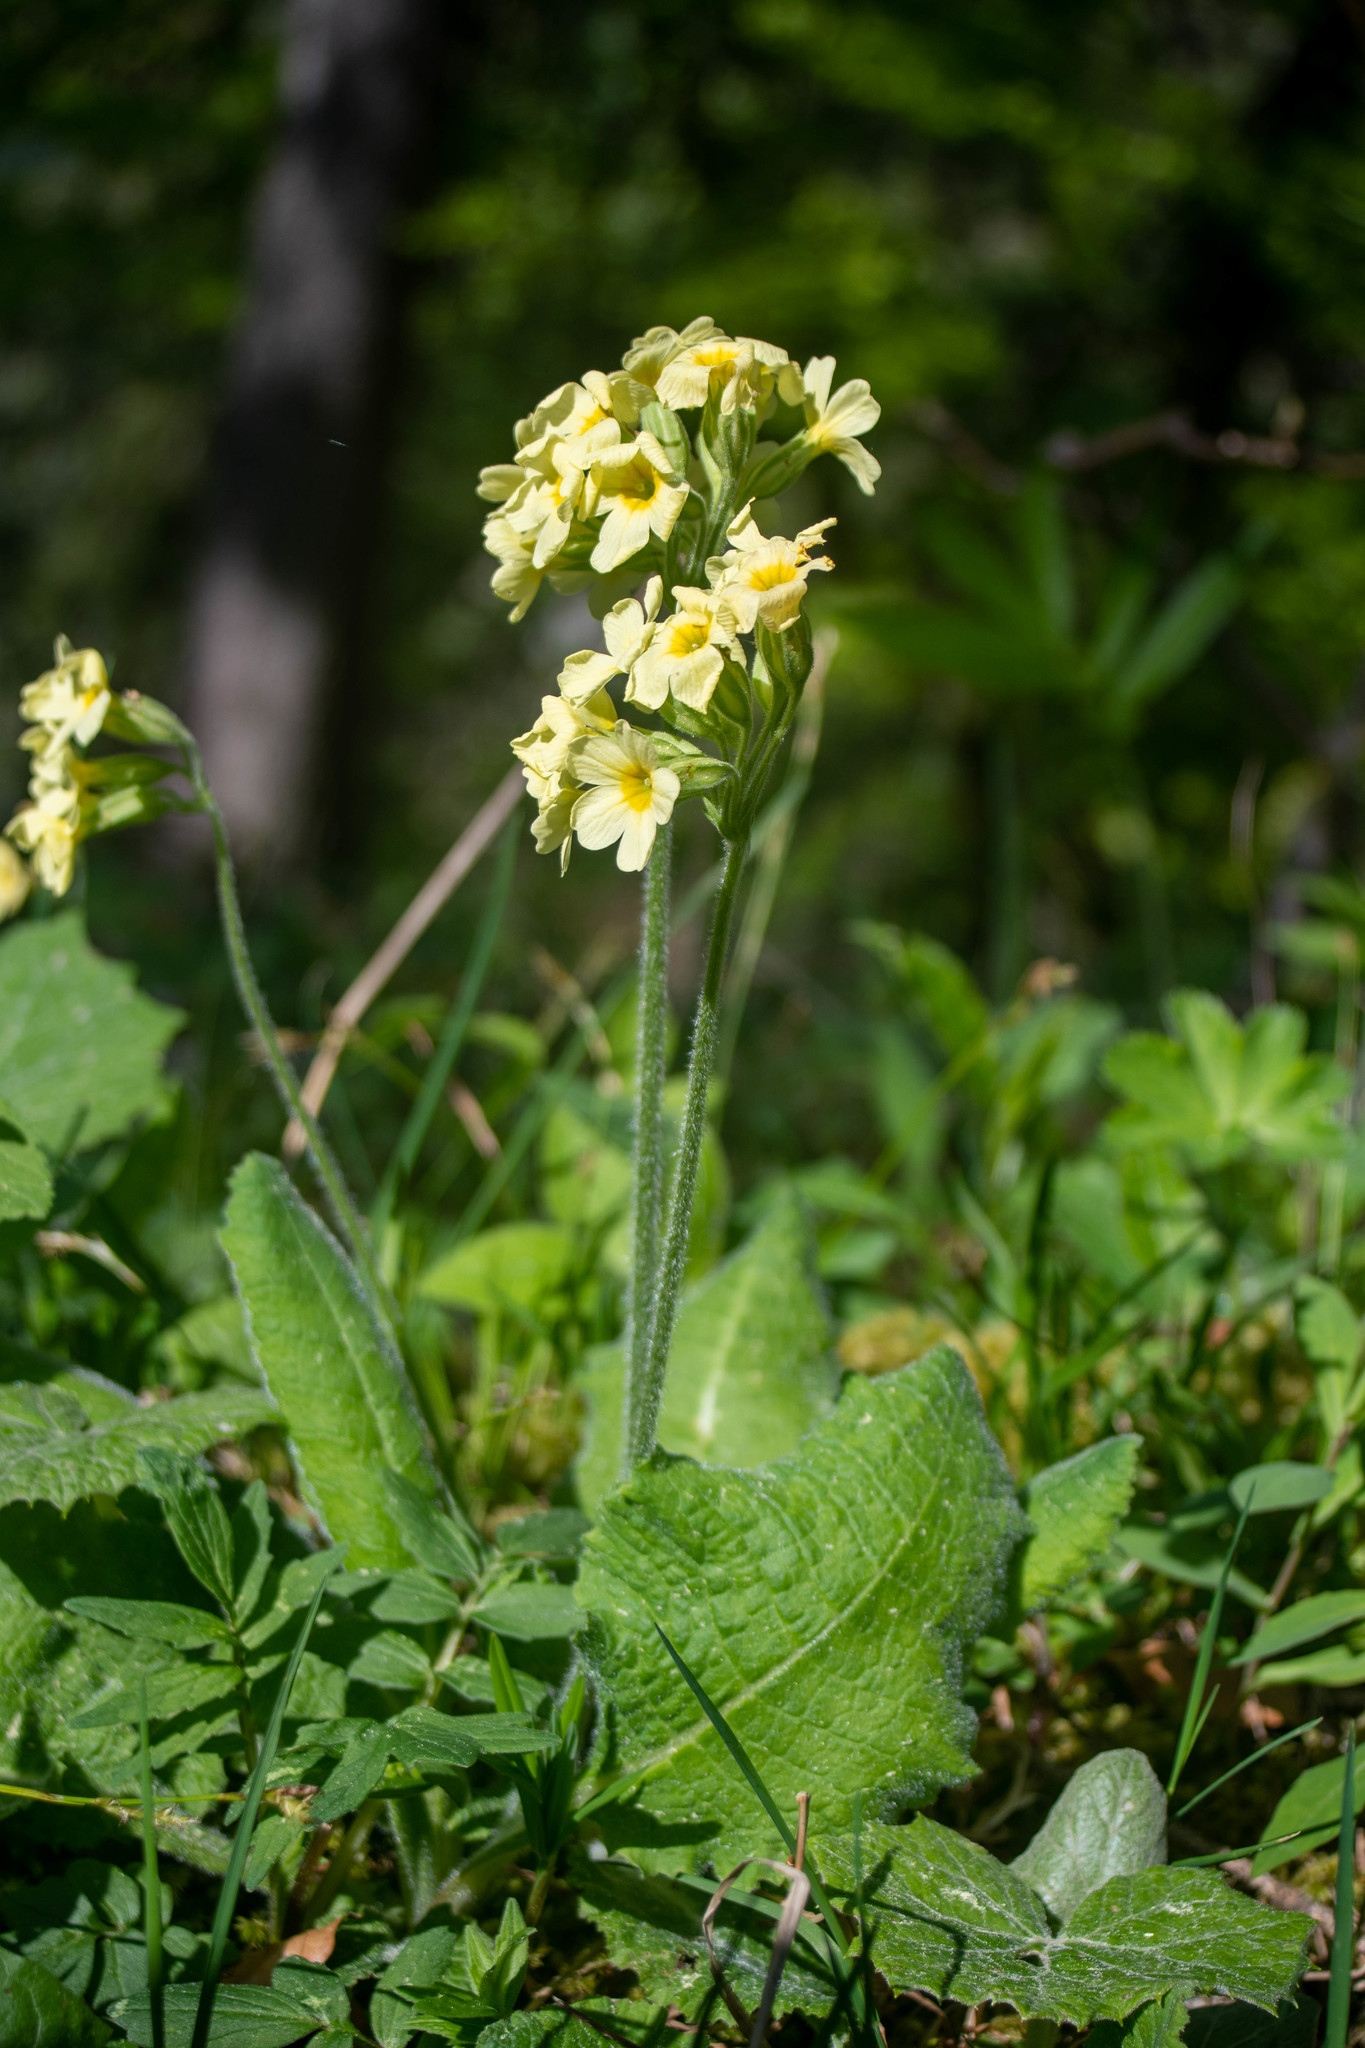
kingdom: Plantae
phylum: Tracheophyta
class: Magnoliopsida
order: Ericales
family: Primulaceae
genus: Primula
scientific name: Primula elatior
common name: Oxlip
